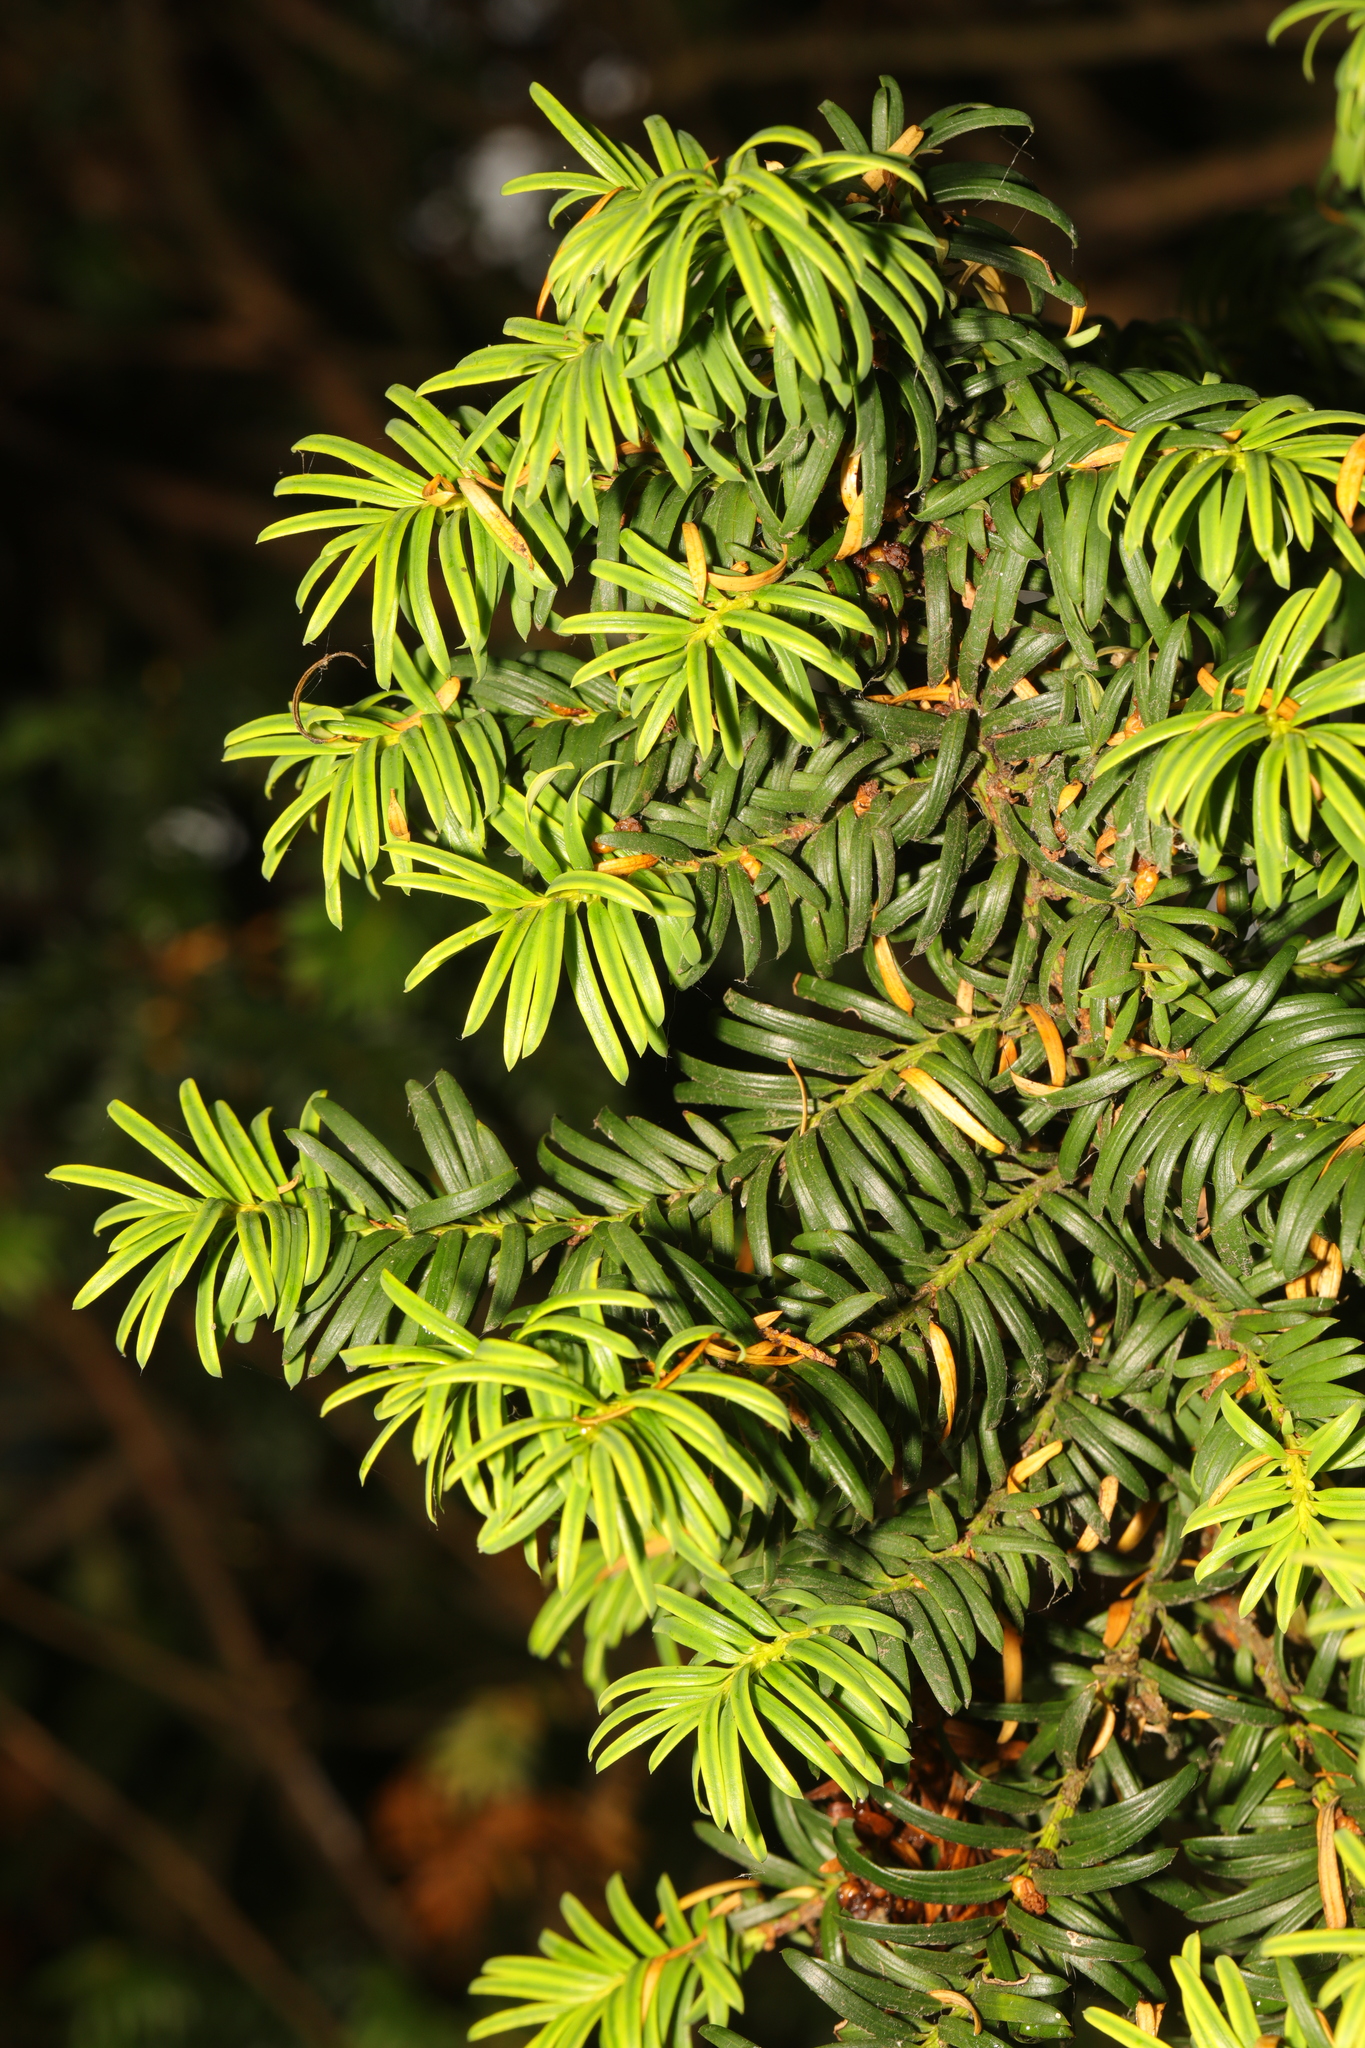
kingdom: Plantae
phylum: Tracheophyta
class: Pinopsida
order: Pinales
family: Taxaceae
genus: Taxus
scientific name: Taxus baccata
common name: Yew
